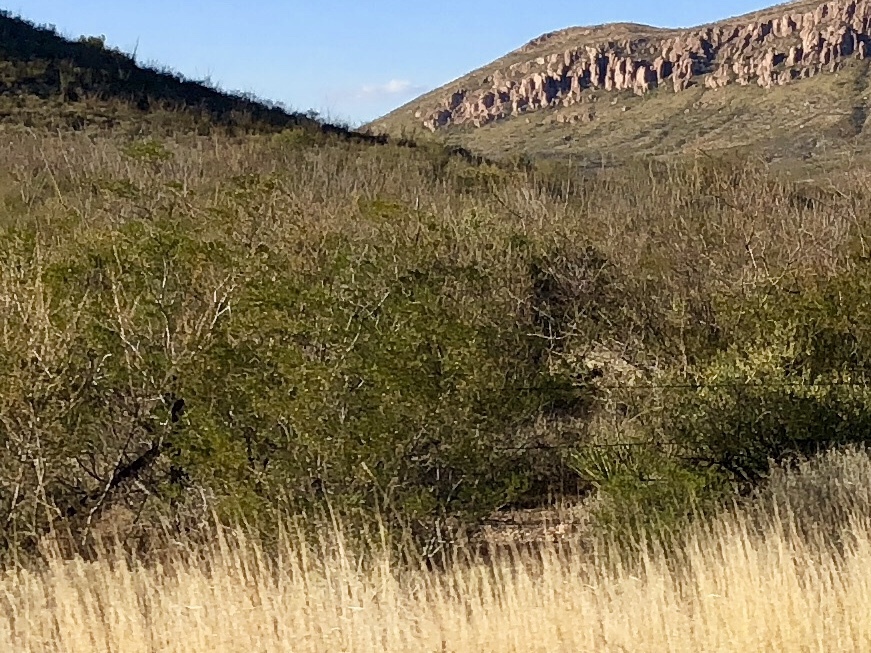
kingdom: Plantae
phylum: Tracheophyta
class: Magnoliopsida
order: Zygophyllales
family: Zygophyllaceae
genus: Larrea
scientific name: Larrea tridentata
